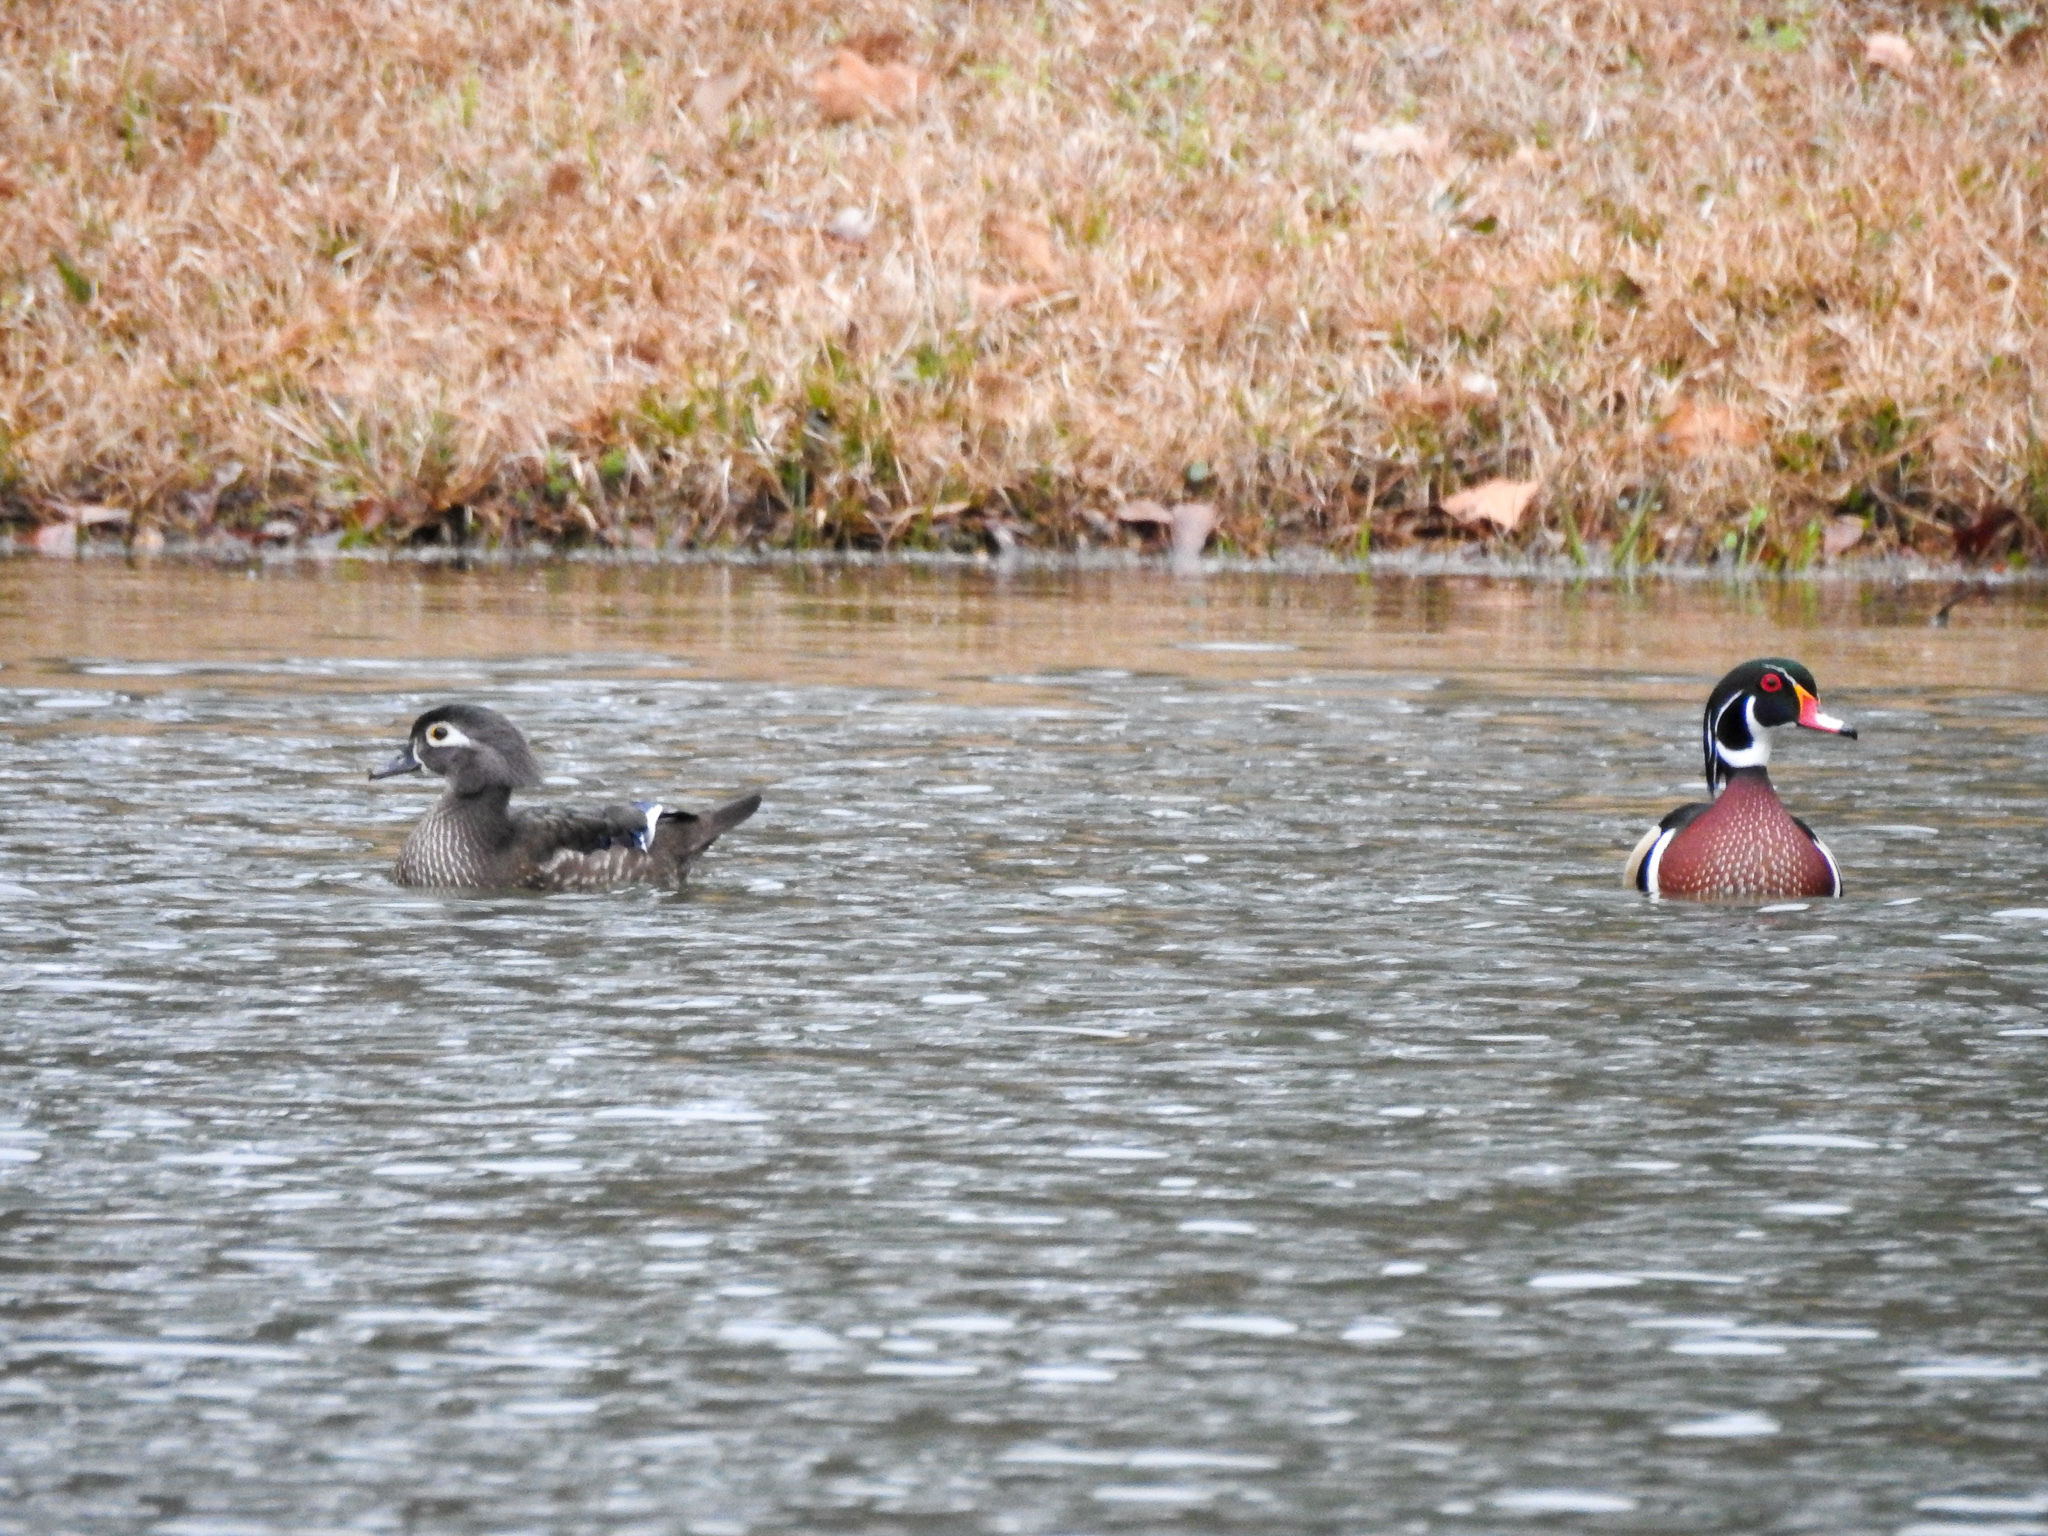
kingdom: Animalia
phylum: Chordata
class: Aves
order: Anseriformes
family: Anatidae
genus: Aix
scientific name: Aix sponsa
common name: Wood duck
